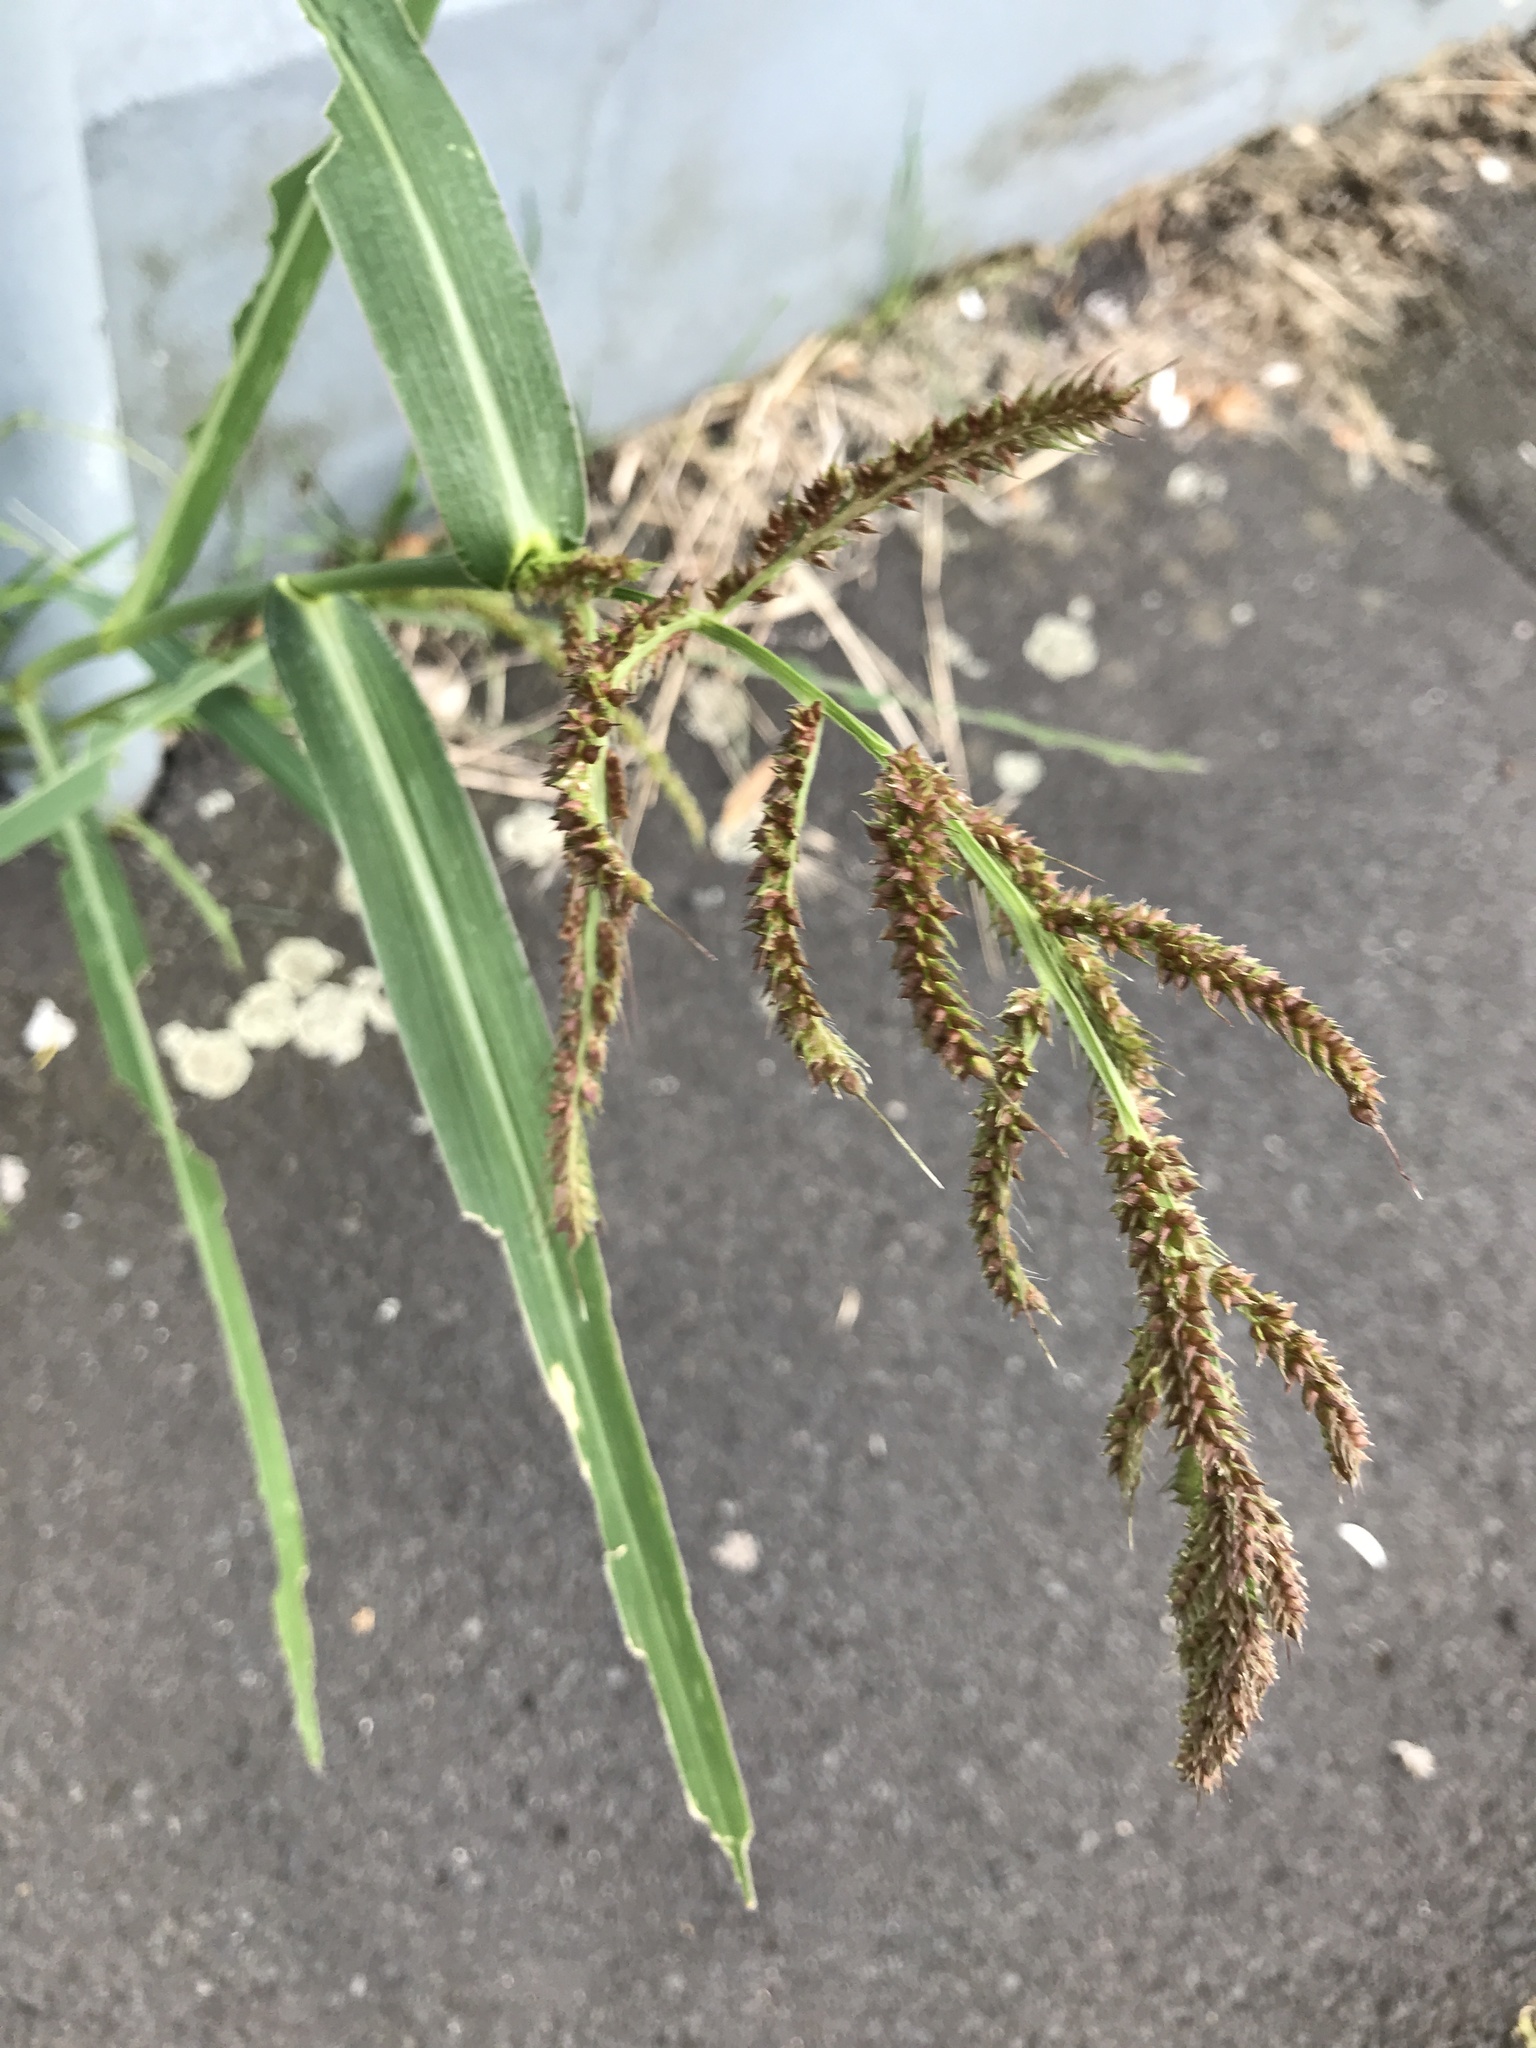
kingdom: Plantae
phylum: Tracheophyta
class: Liliopsida
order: Poales
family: Poaceae
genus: Echinochloa
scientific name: Echinochloa crus-galli
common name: Cockspur
